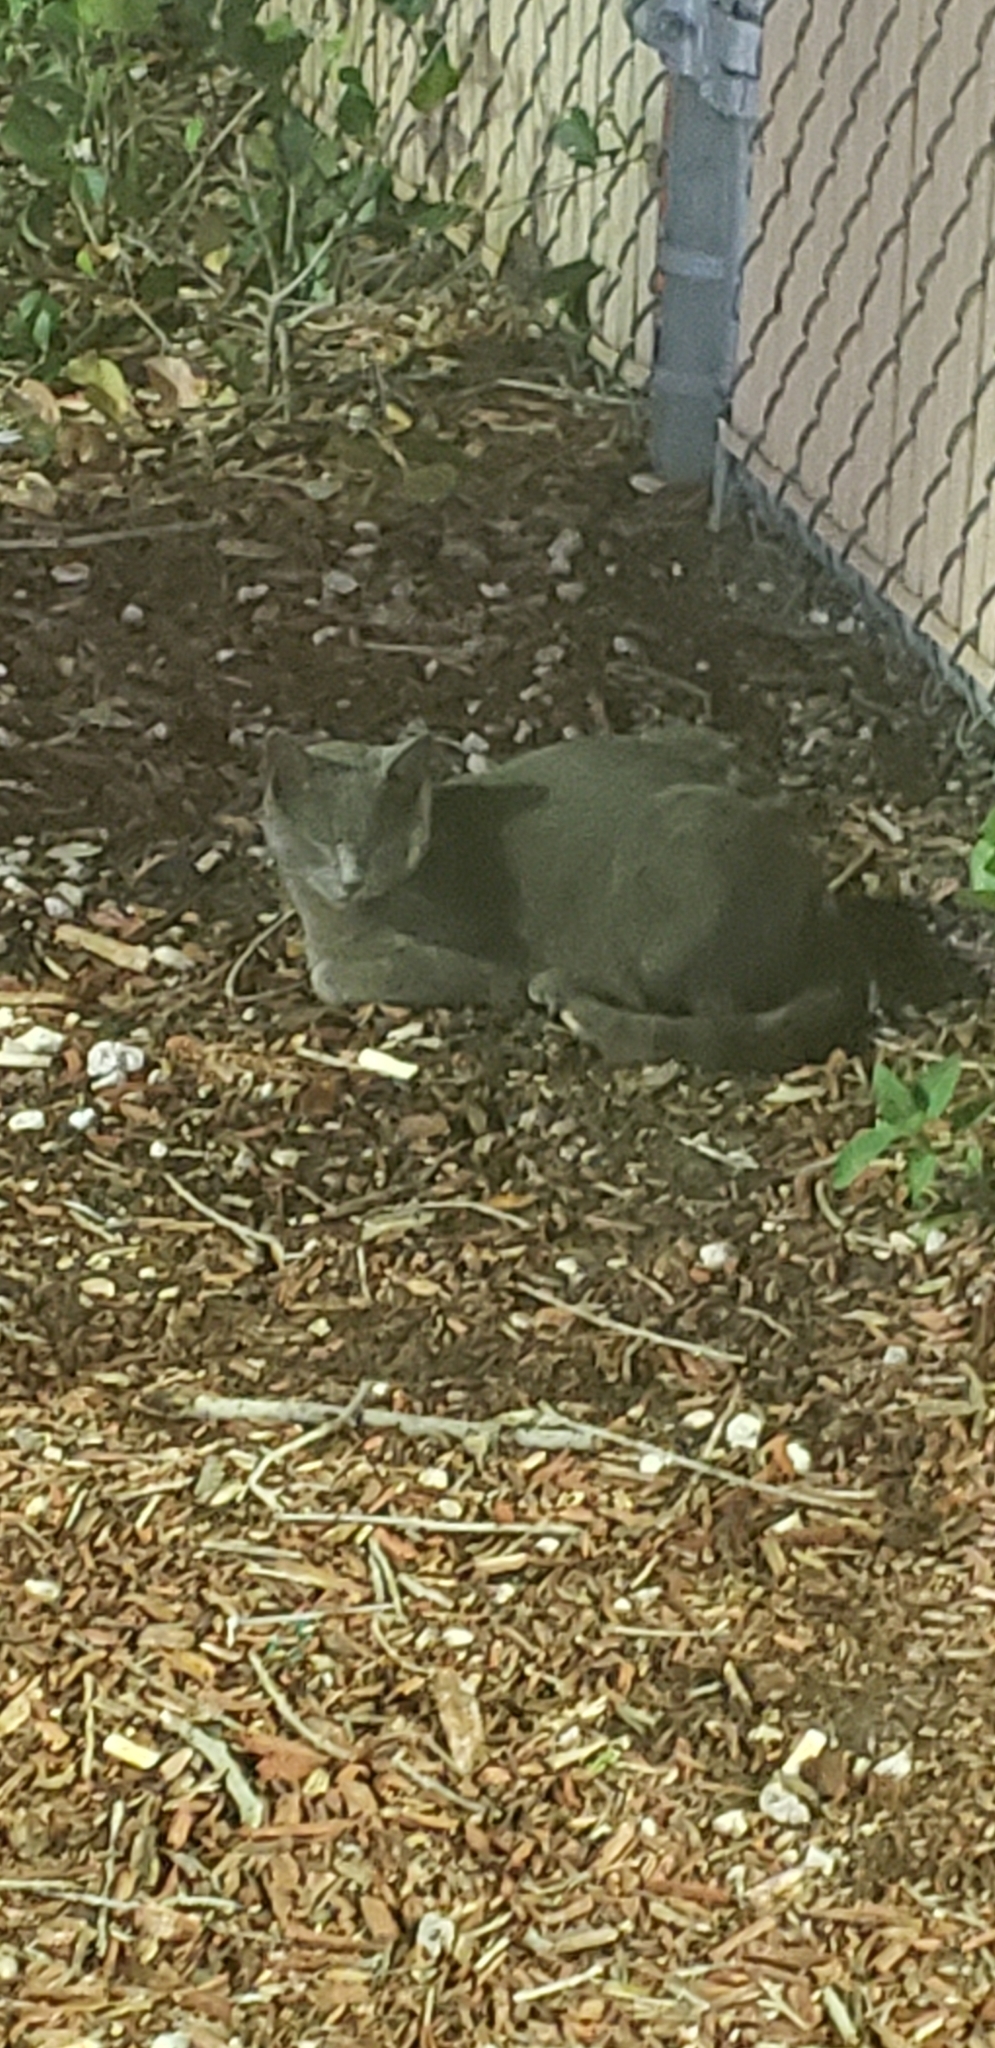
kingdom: Animalia
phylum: Chordata
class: Mammalia
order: Carnivora
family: Felidae
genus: Felis
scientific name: Felis catus
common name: Domestic cat
